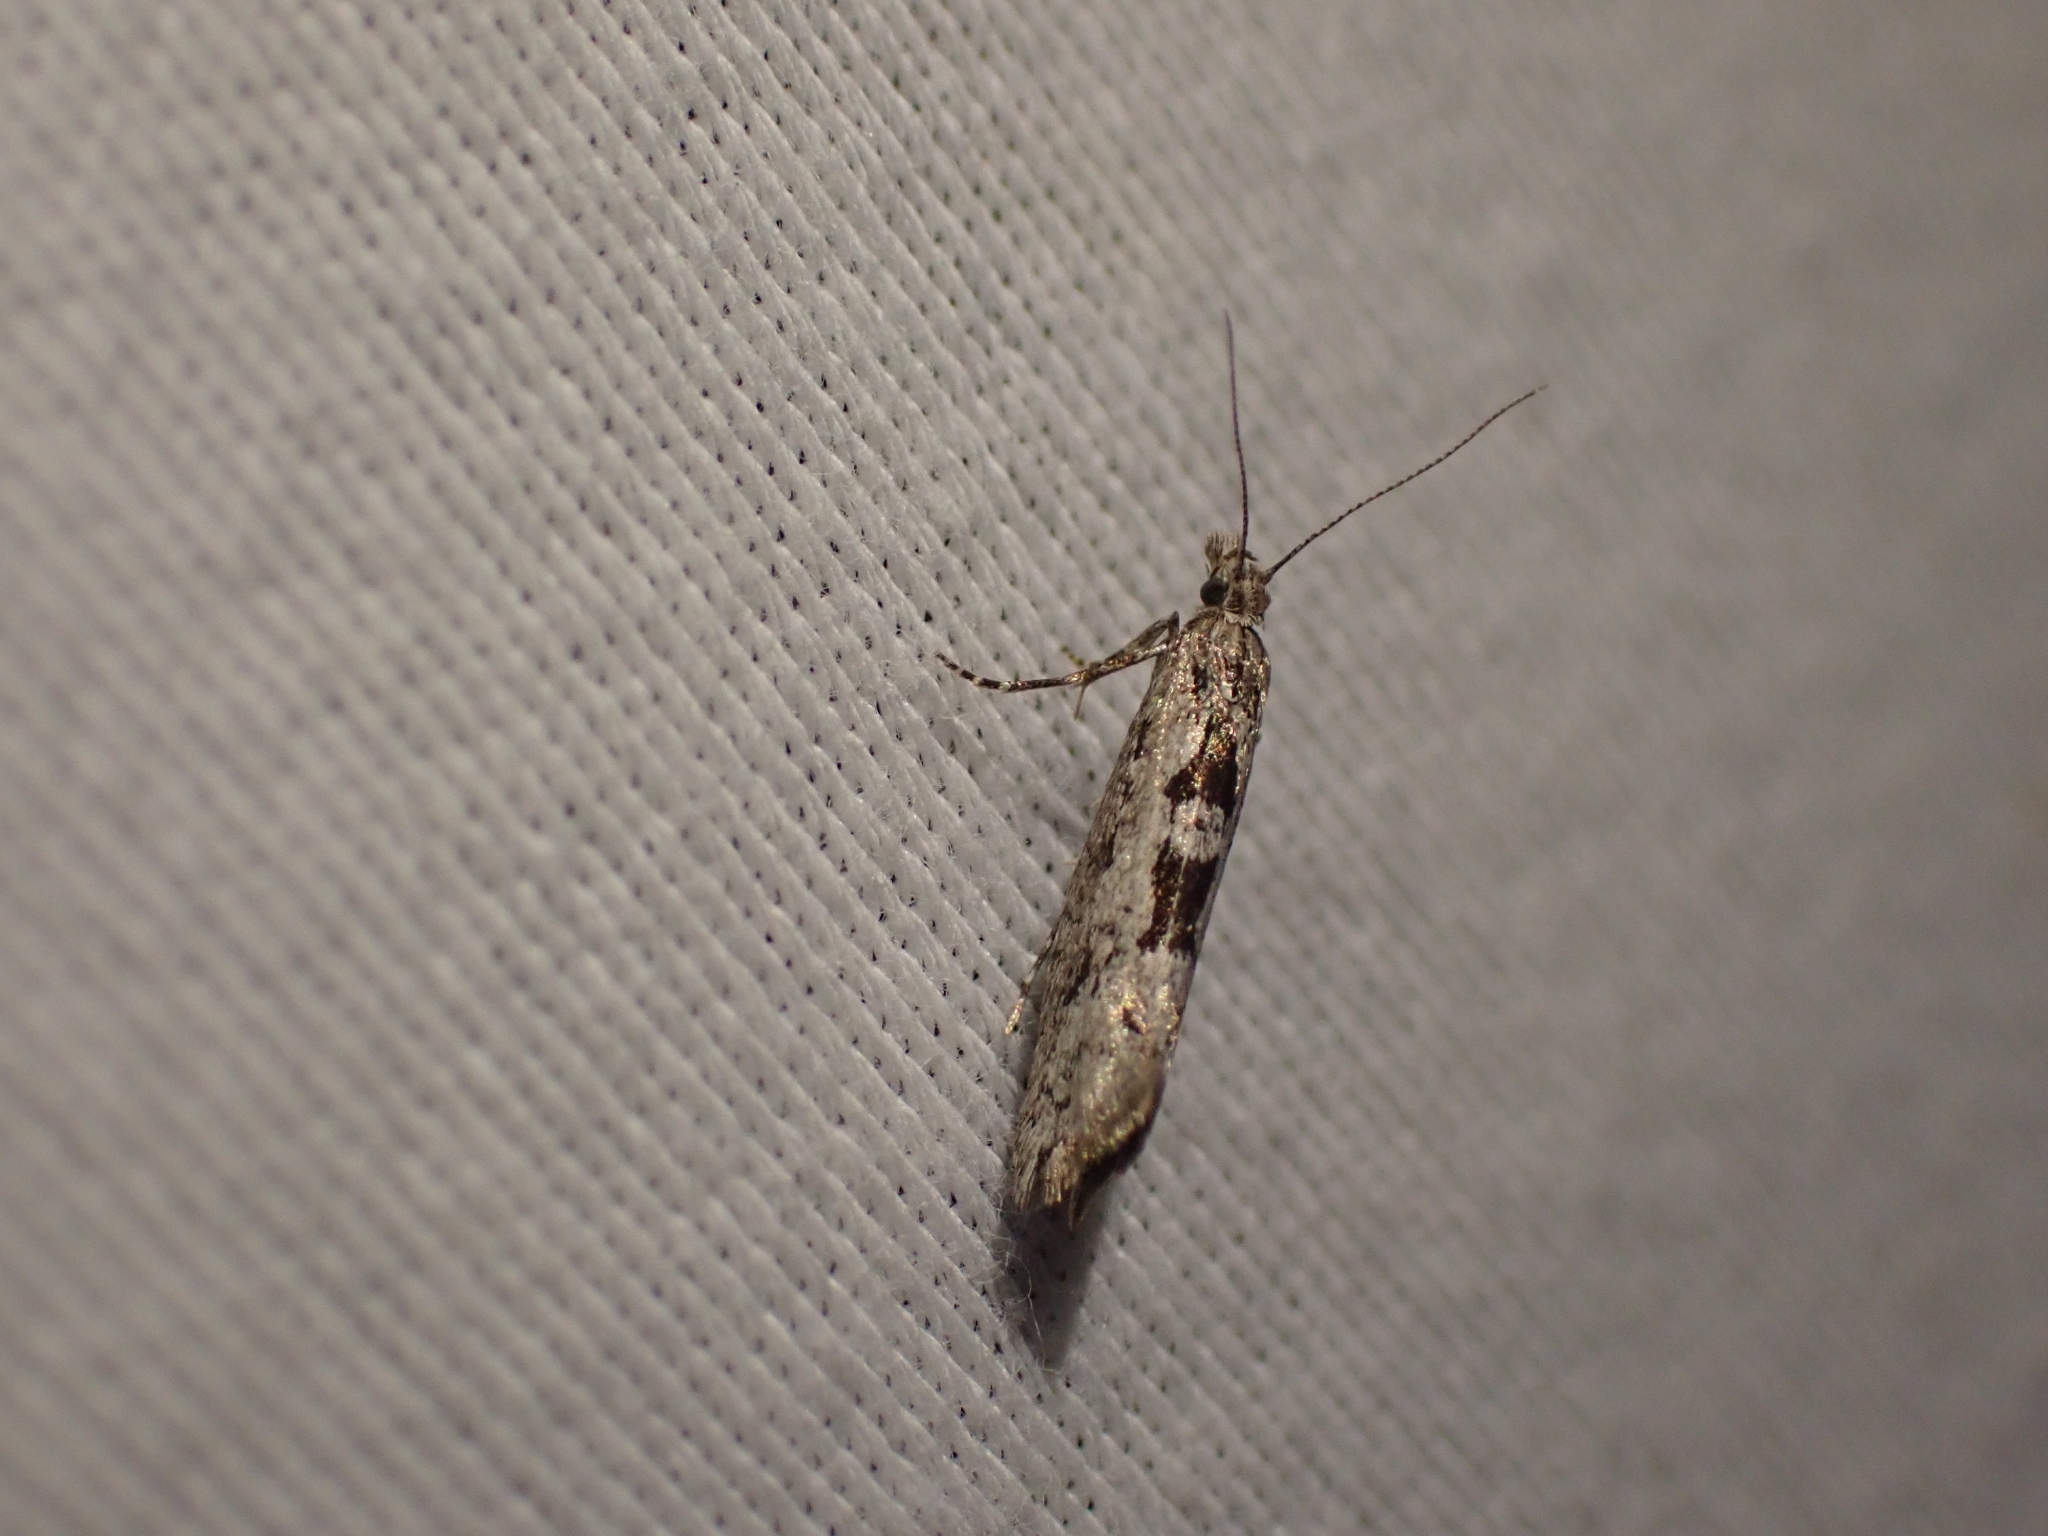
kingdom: Animalia
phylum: Arthropoda
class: Insecta
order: Lepidoptera
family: Ypsolophidae
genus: Ypsolopha
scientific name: Ypsolopha dorsimaculella
